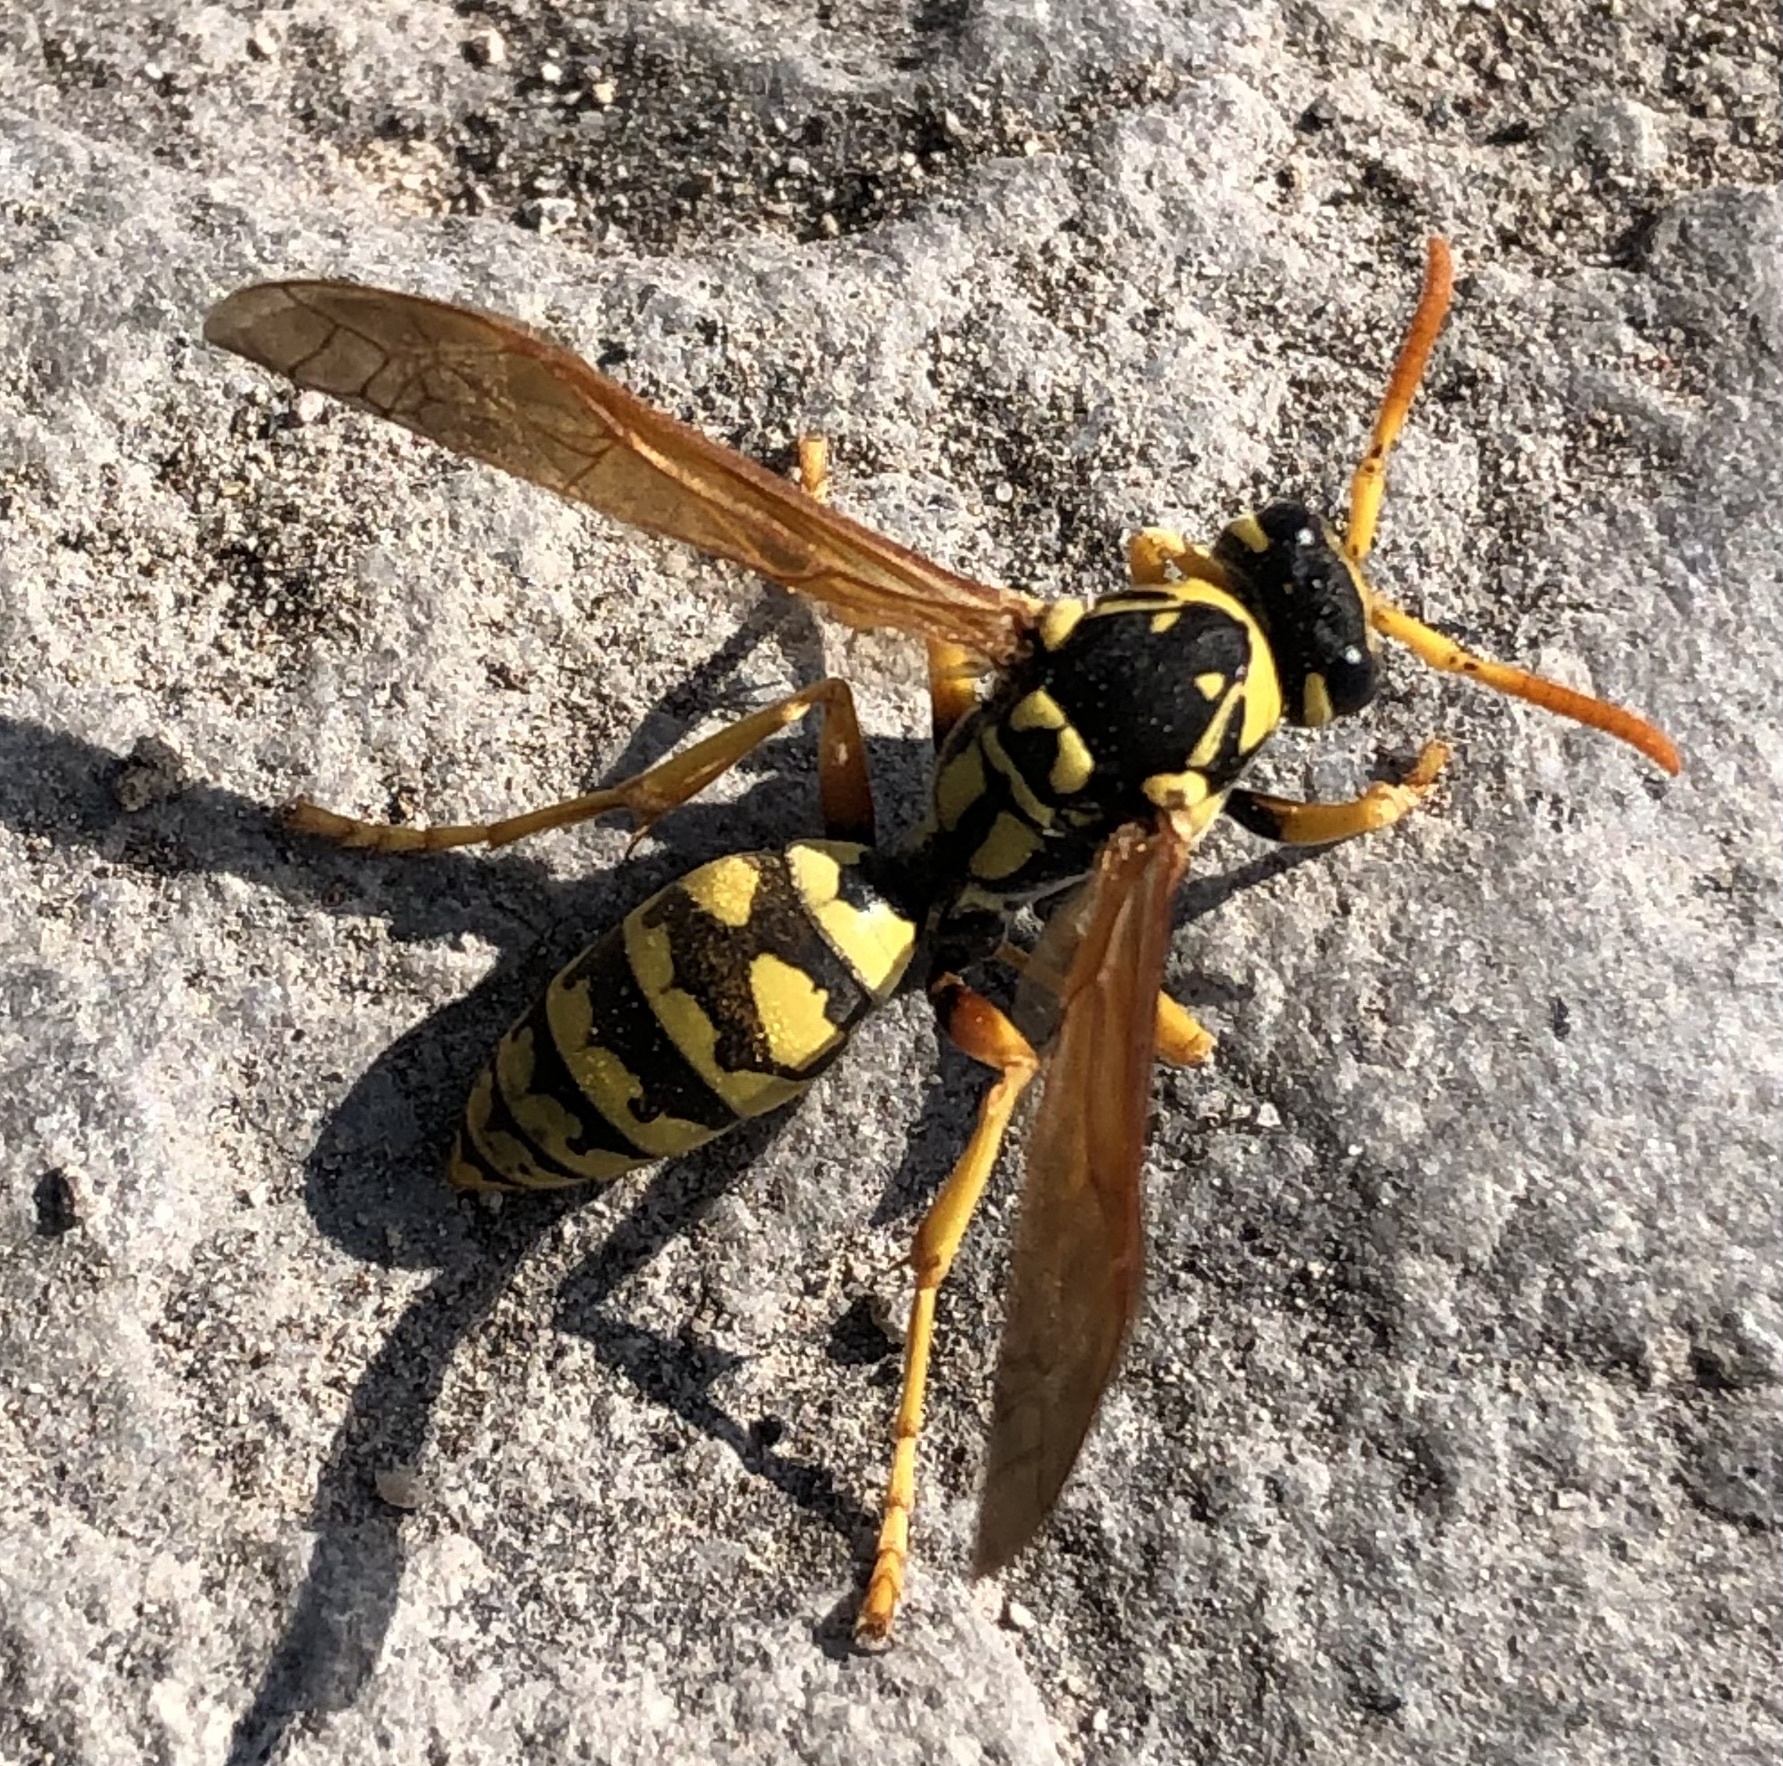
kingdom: Animalia
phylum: Arthropoda
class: Insecta
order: Hymenoptera
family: Eumenidae
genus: Polistes
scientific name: Polistes dominula
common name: Paper wasp
